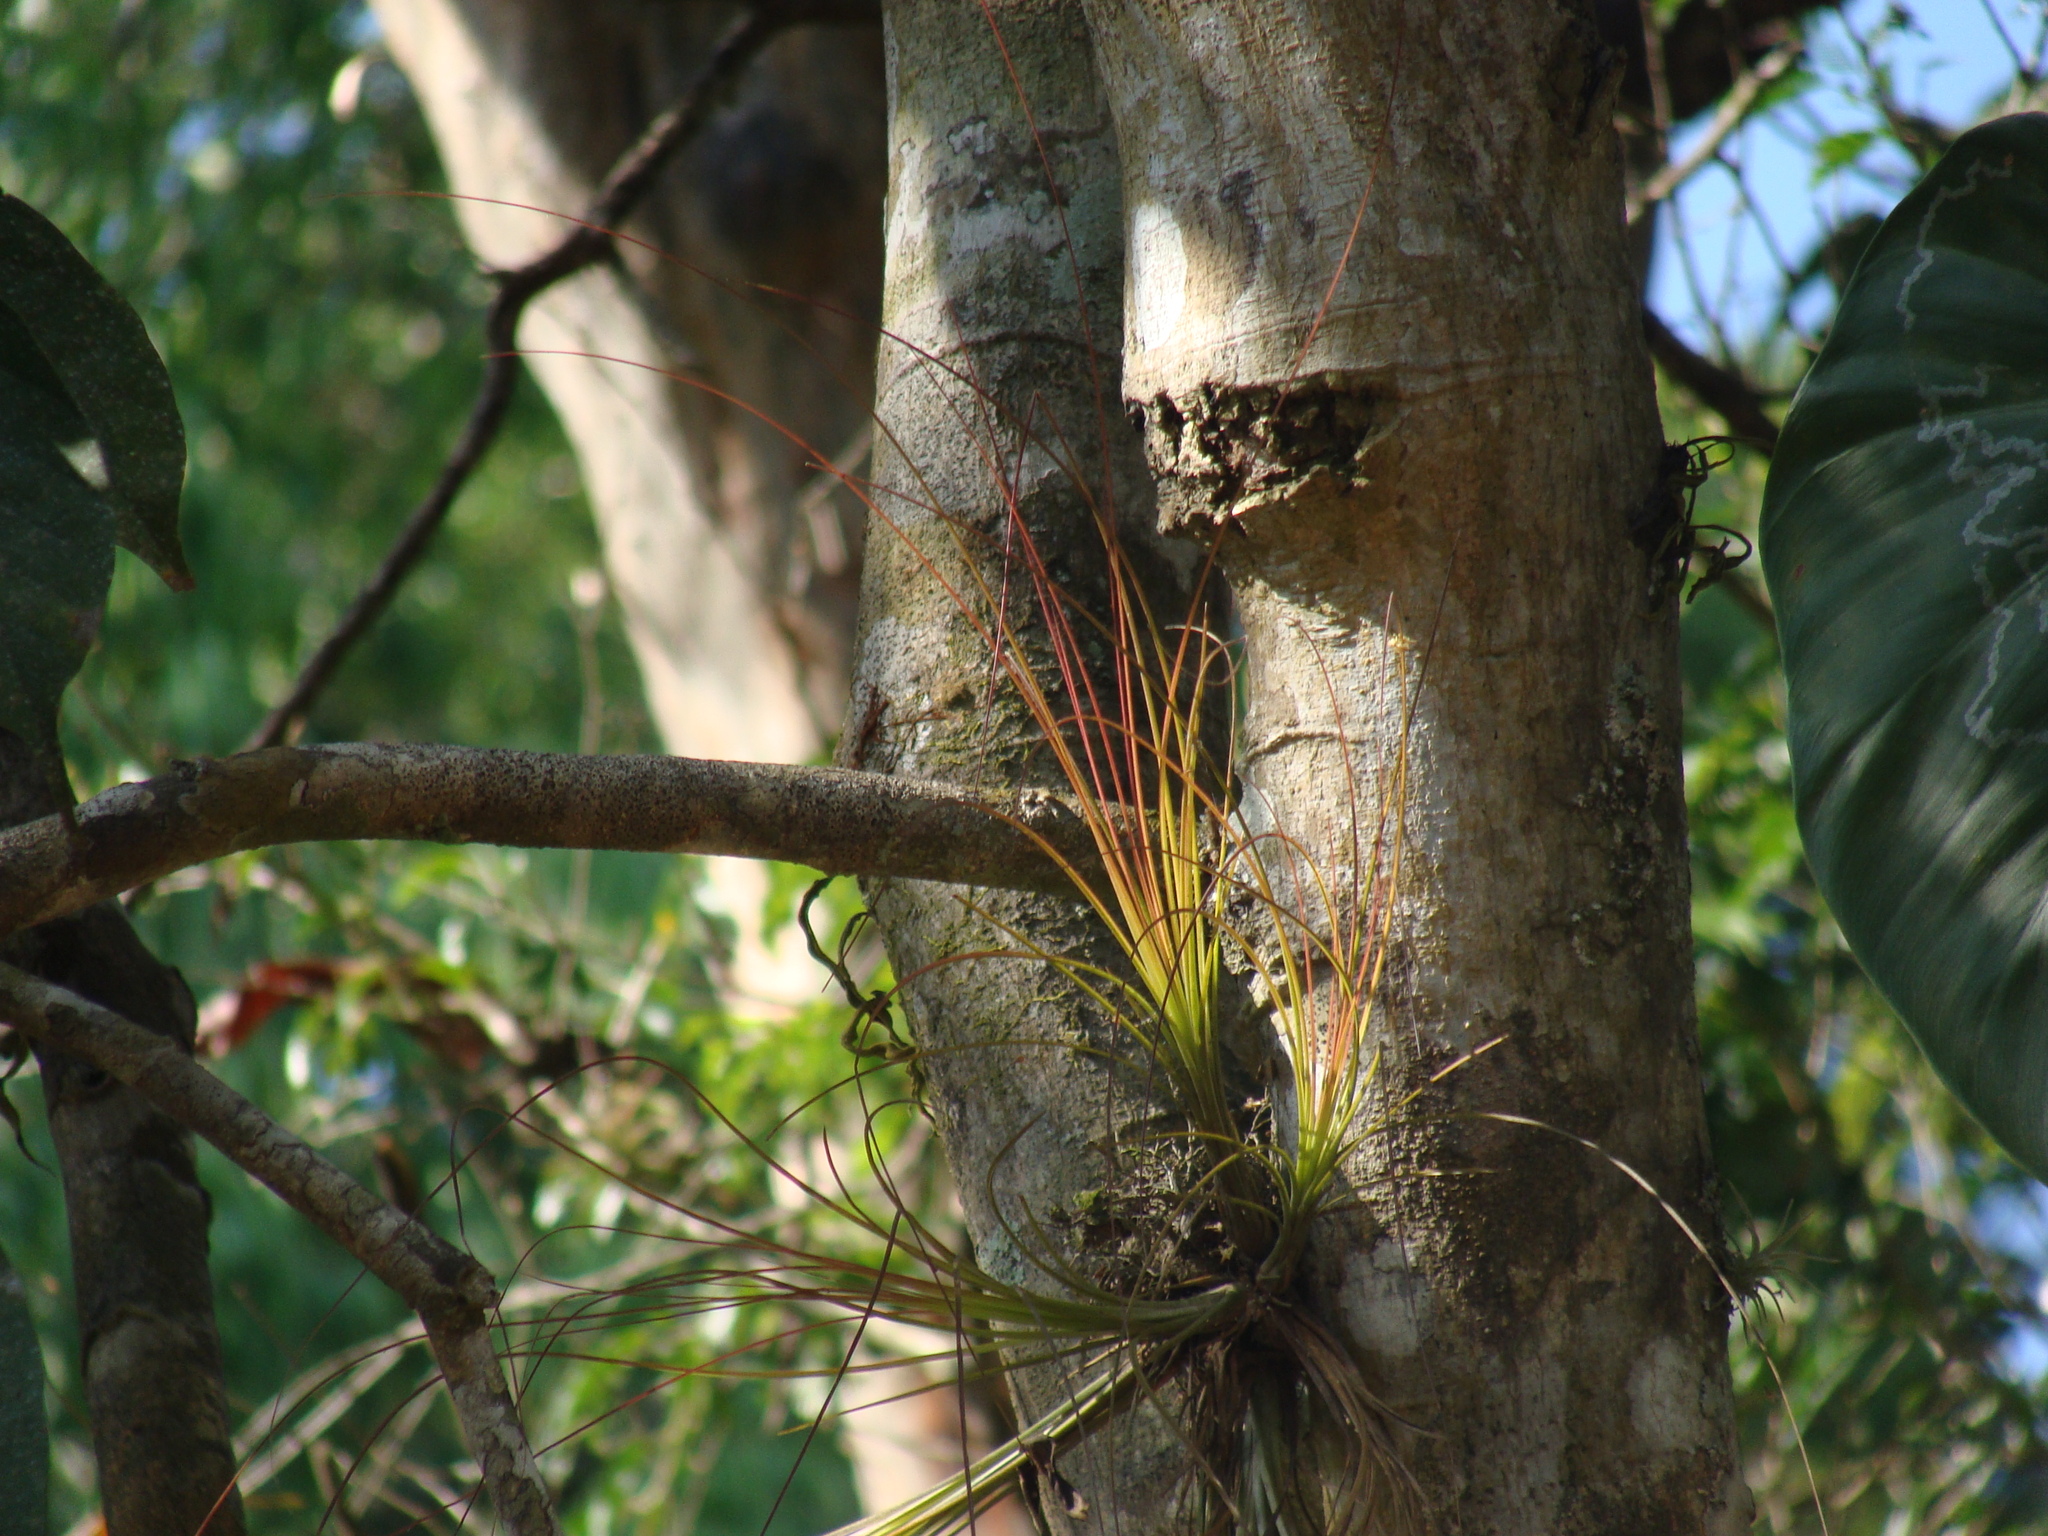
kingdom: Plantae
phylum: Tracheophyta
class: Liliopsida
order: Poales
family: Bromeliaceae
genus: Tillandsia
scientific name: Tillandsia eistetteri
